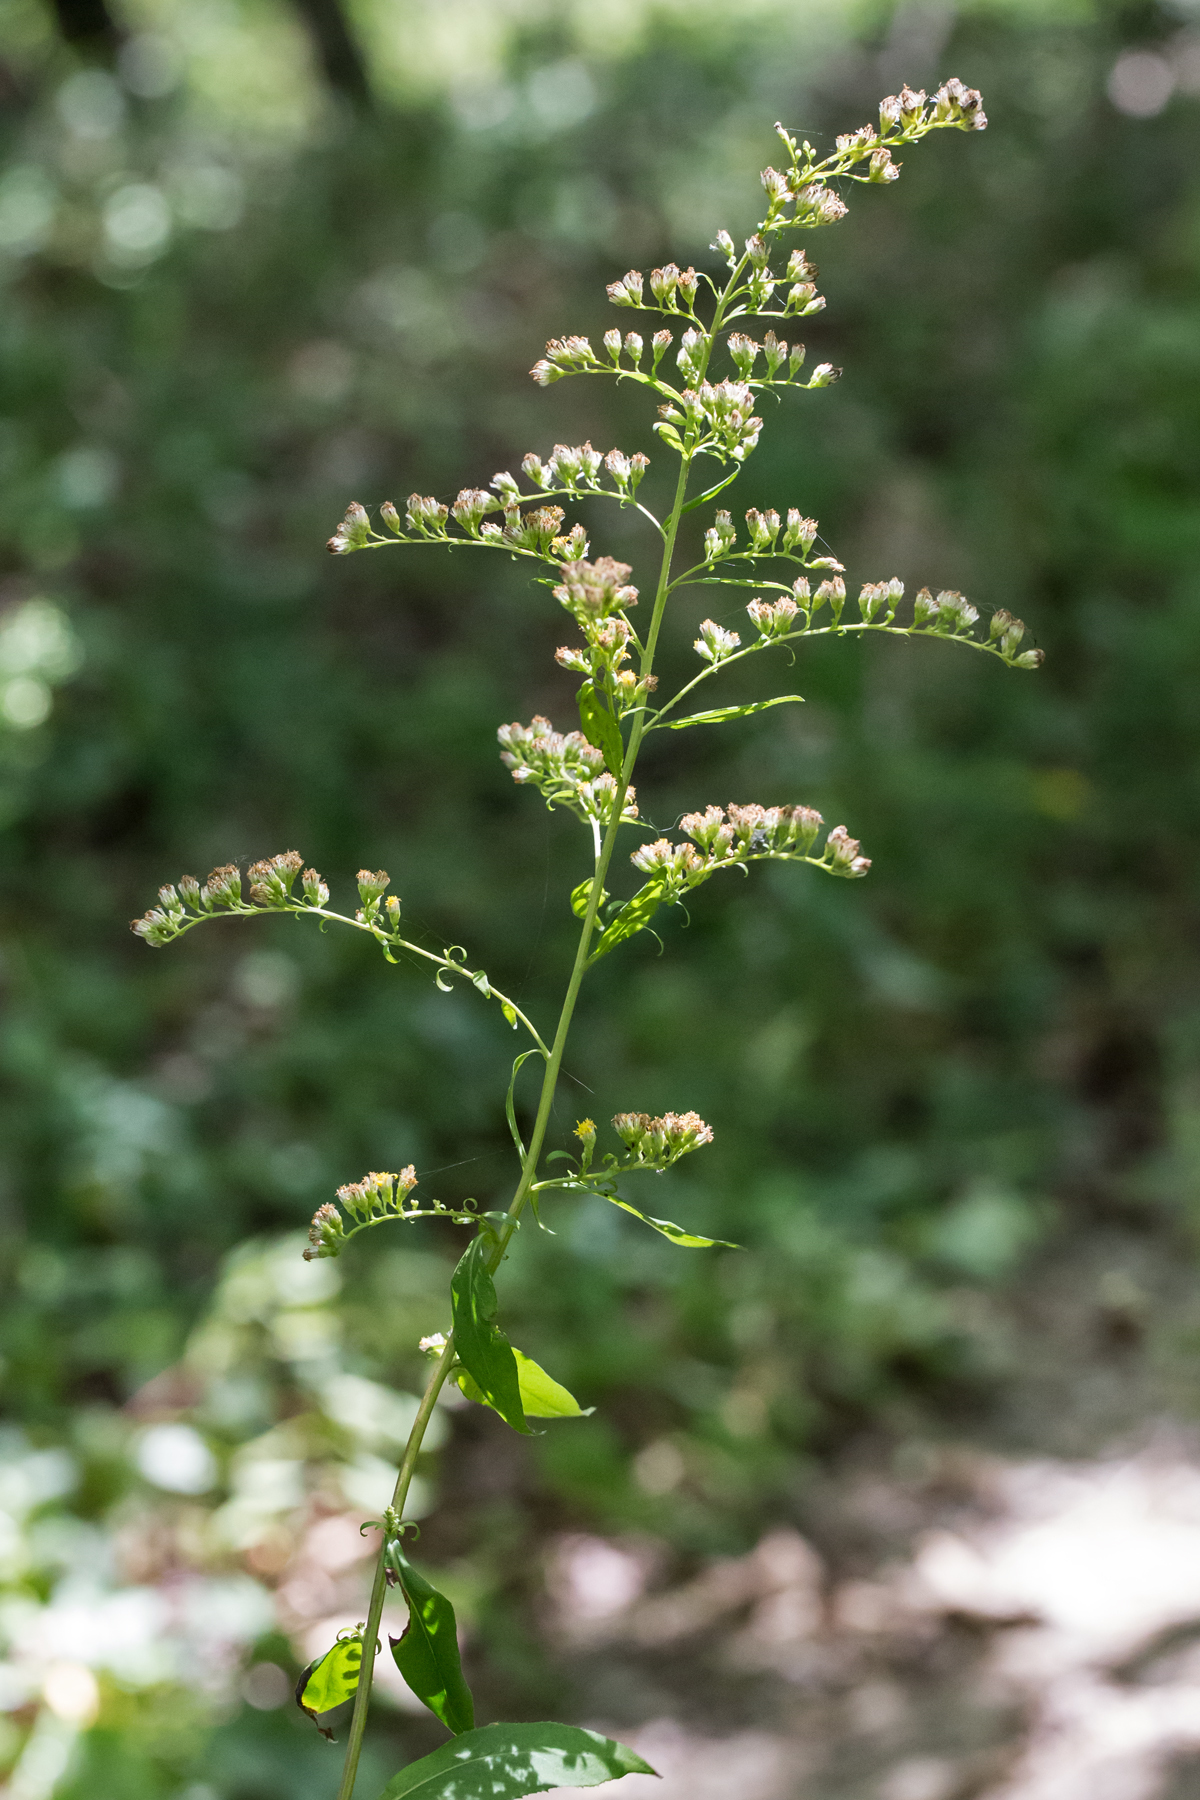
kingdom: Plantae
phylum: Tracheophyta
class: Magnoliopsida
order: Asterales
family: Asteraceae
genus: Solidago
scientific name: Solidago ulmifolia
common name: Elm-leaf goldenrod
